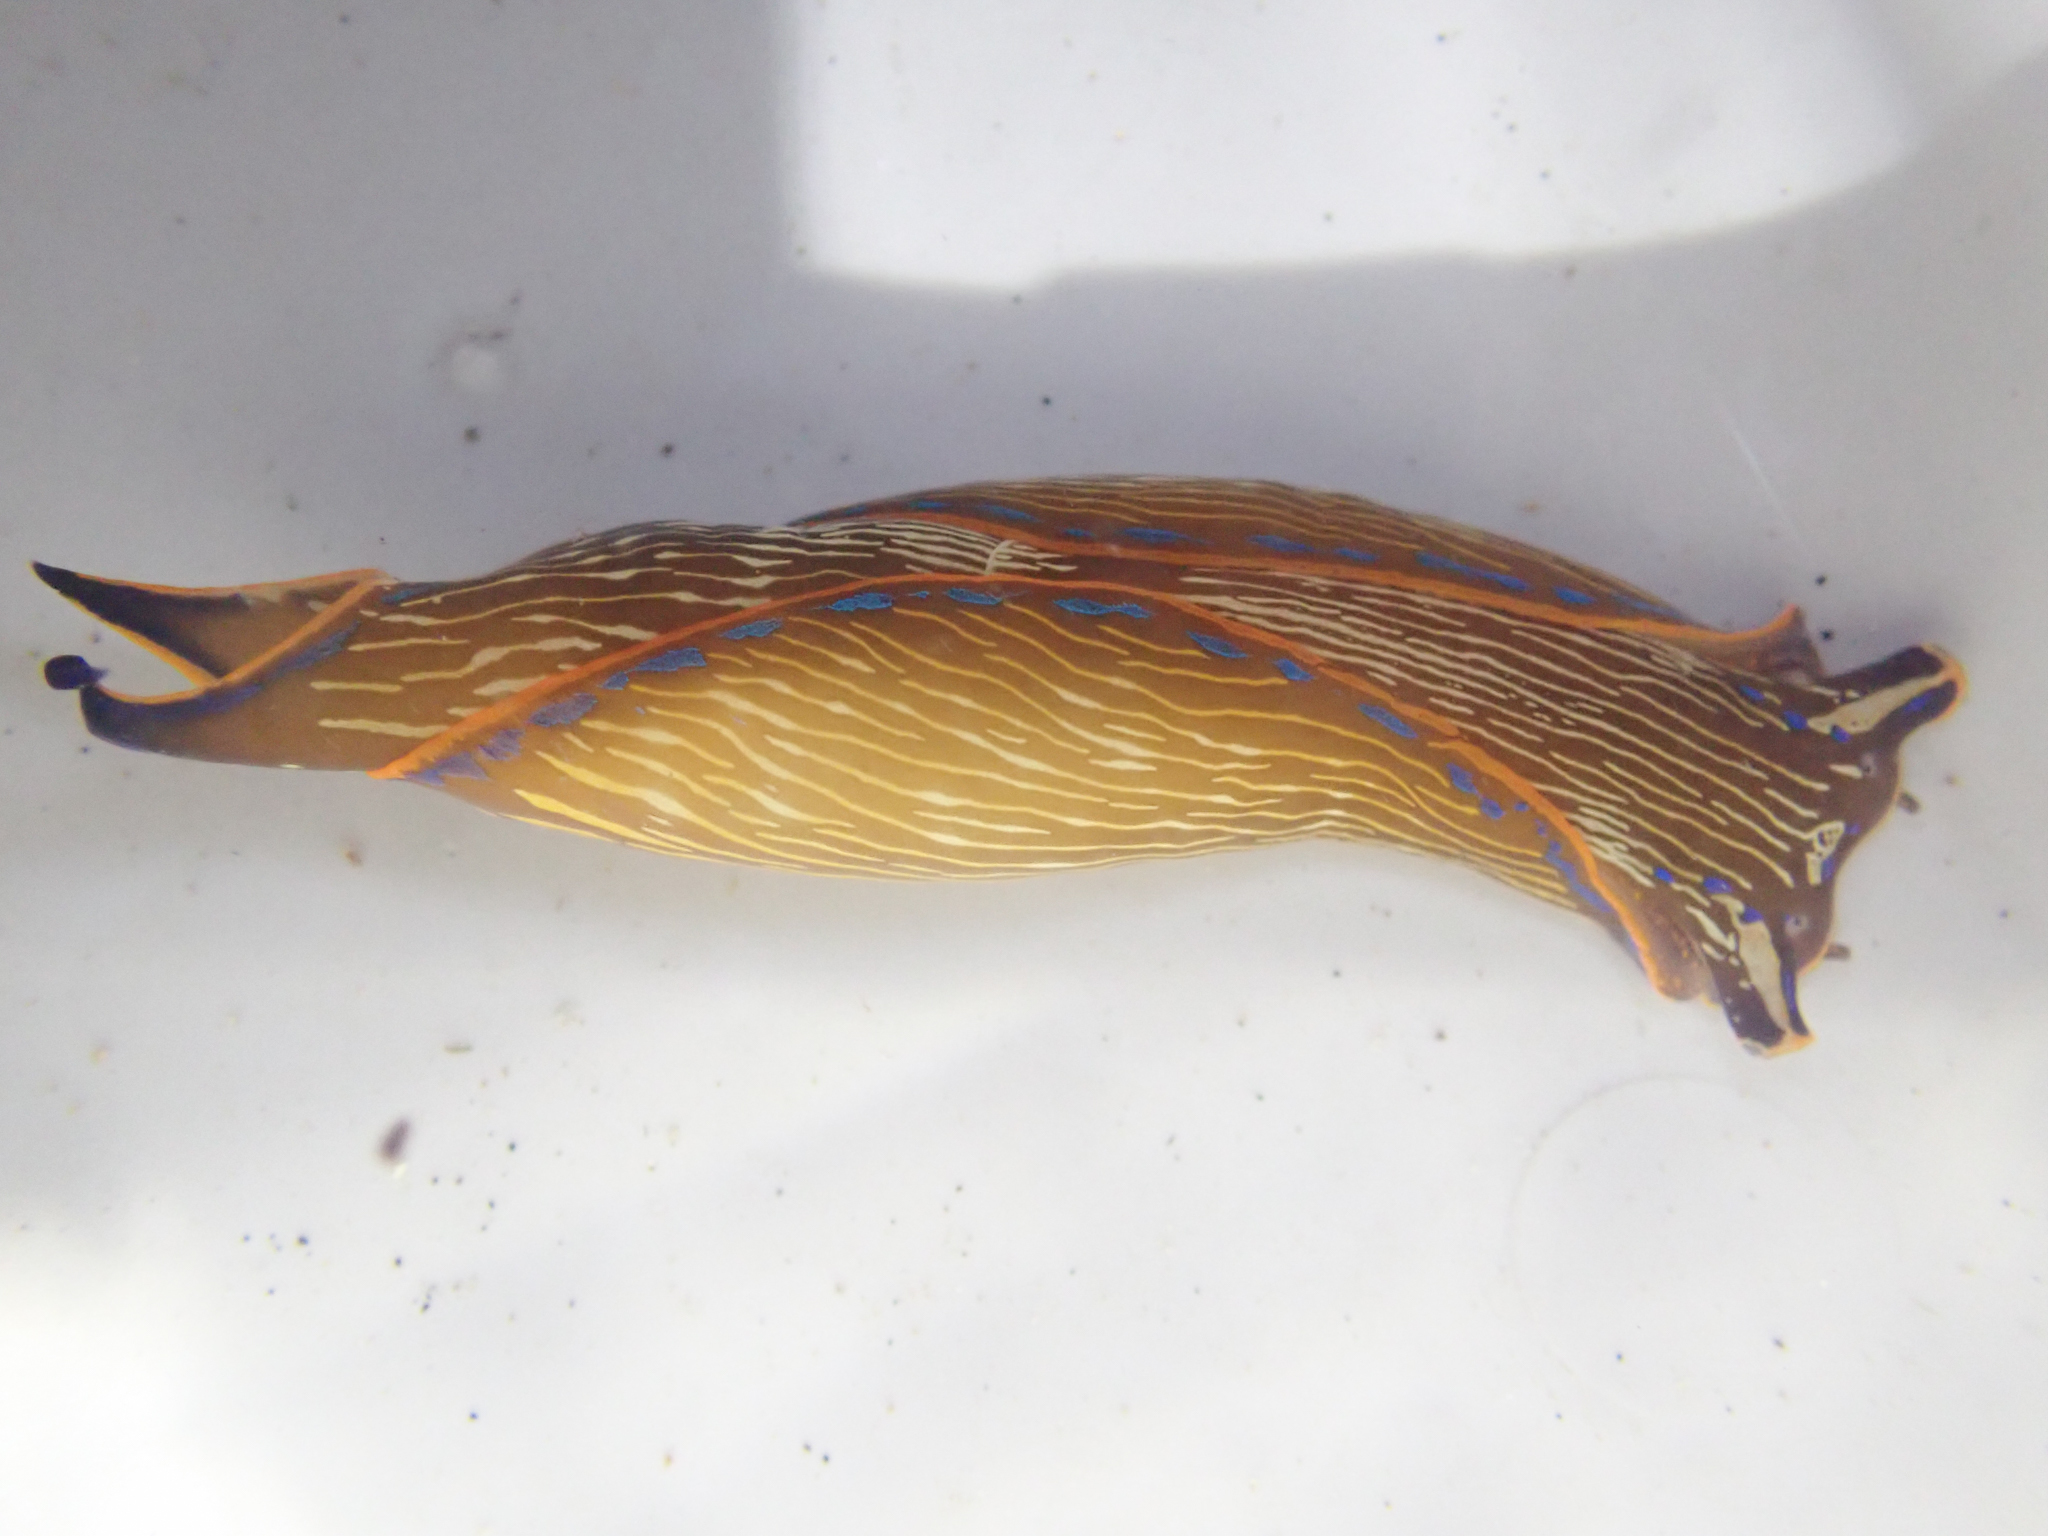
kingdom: Animalia
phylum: Mollusca
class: Gastropoda
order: Cephalaspidea
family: Aglajidae
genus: Navanax
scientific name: Navanax inermis
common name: California aglaja
